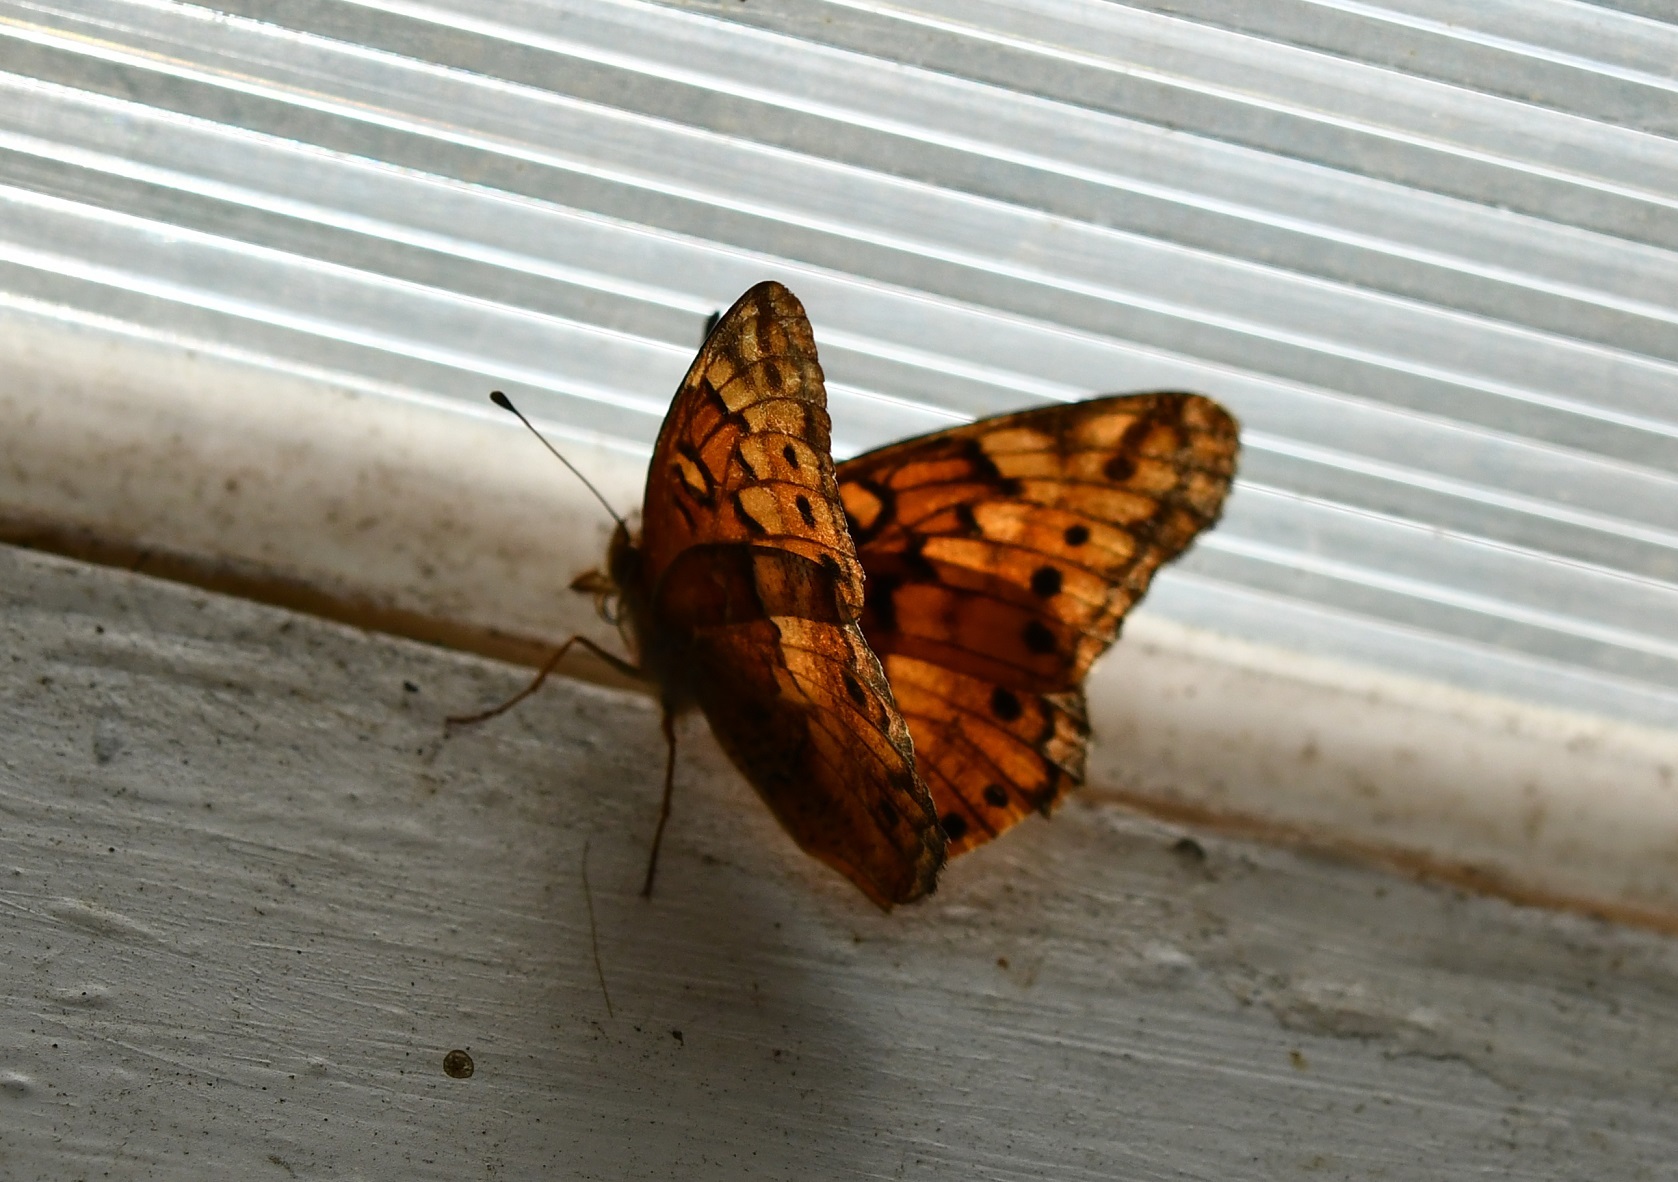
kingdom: Animalia
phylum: Arthropoda
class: Insecta
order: Lepidoptera
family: Nymphalidae
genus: Euptoieta
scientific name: Euptoieta claudia
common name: Variegated fritillary
